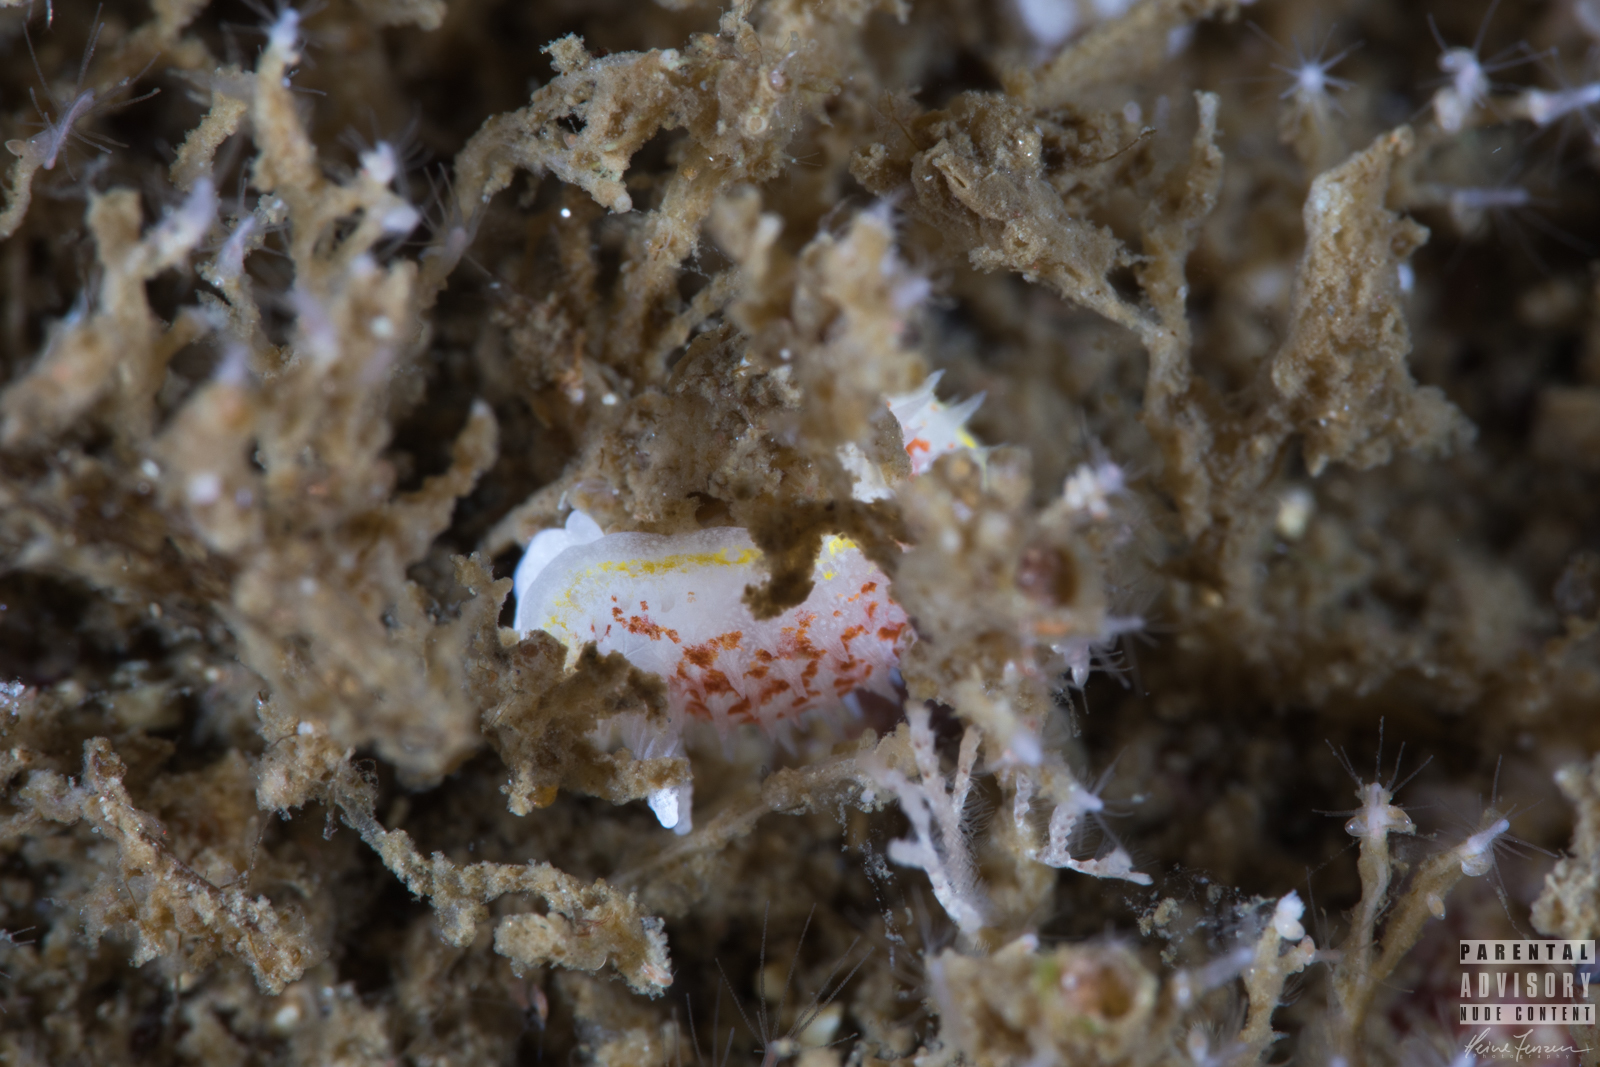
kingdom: Animalia
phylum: Mollusca
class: Gastropoda
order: Nudibranchia
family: Calycidorididae
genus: Diaphorodoris
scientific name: Diaphorodoris luteocincta
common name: Fried egg nudibranch
